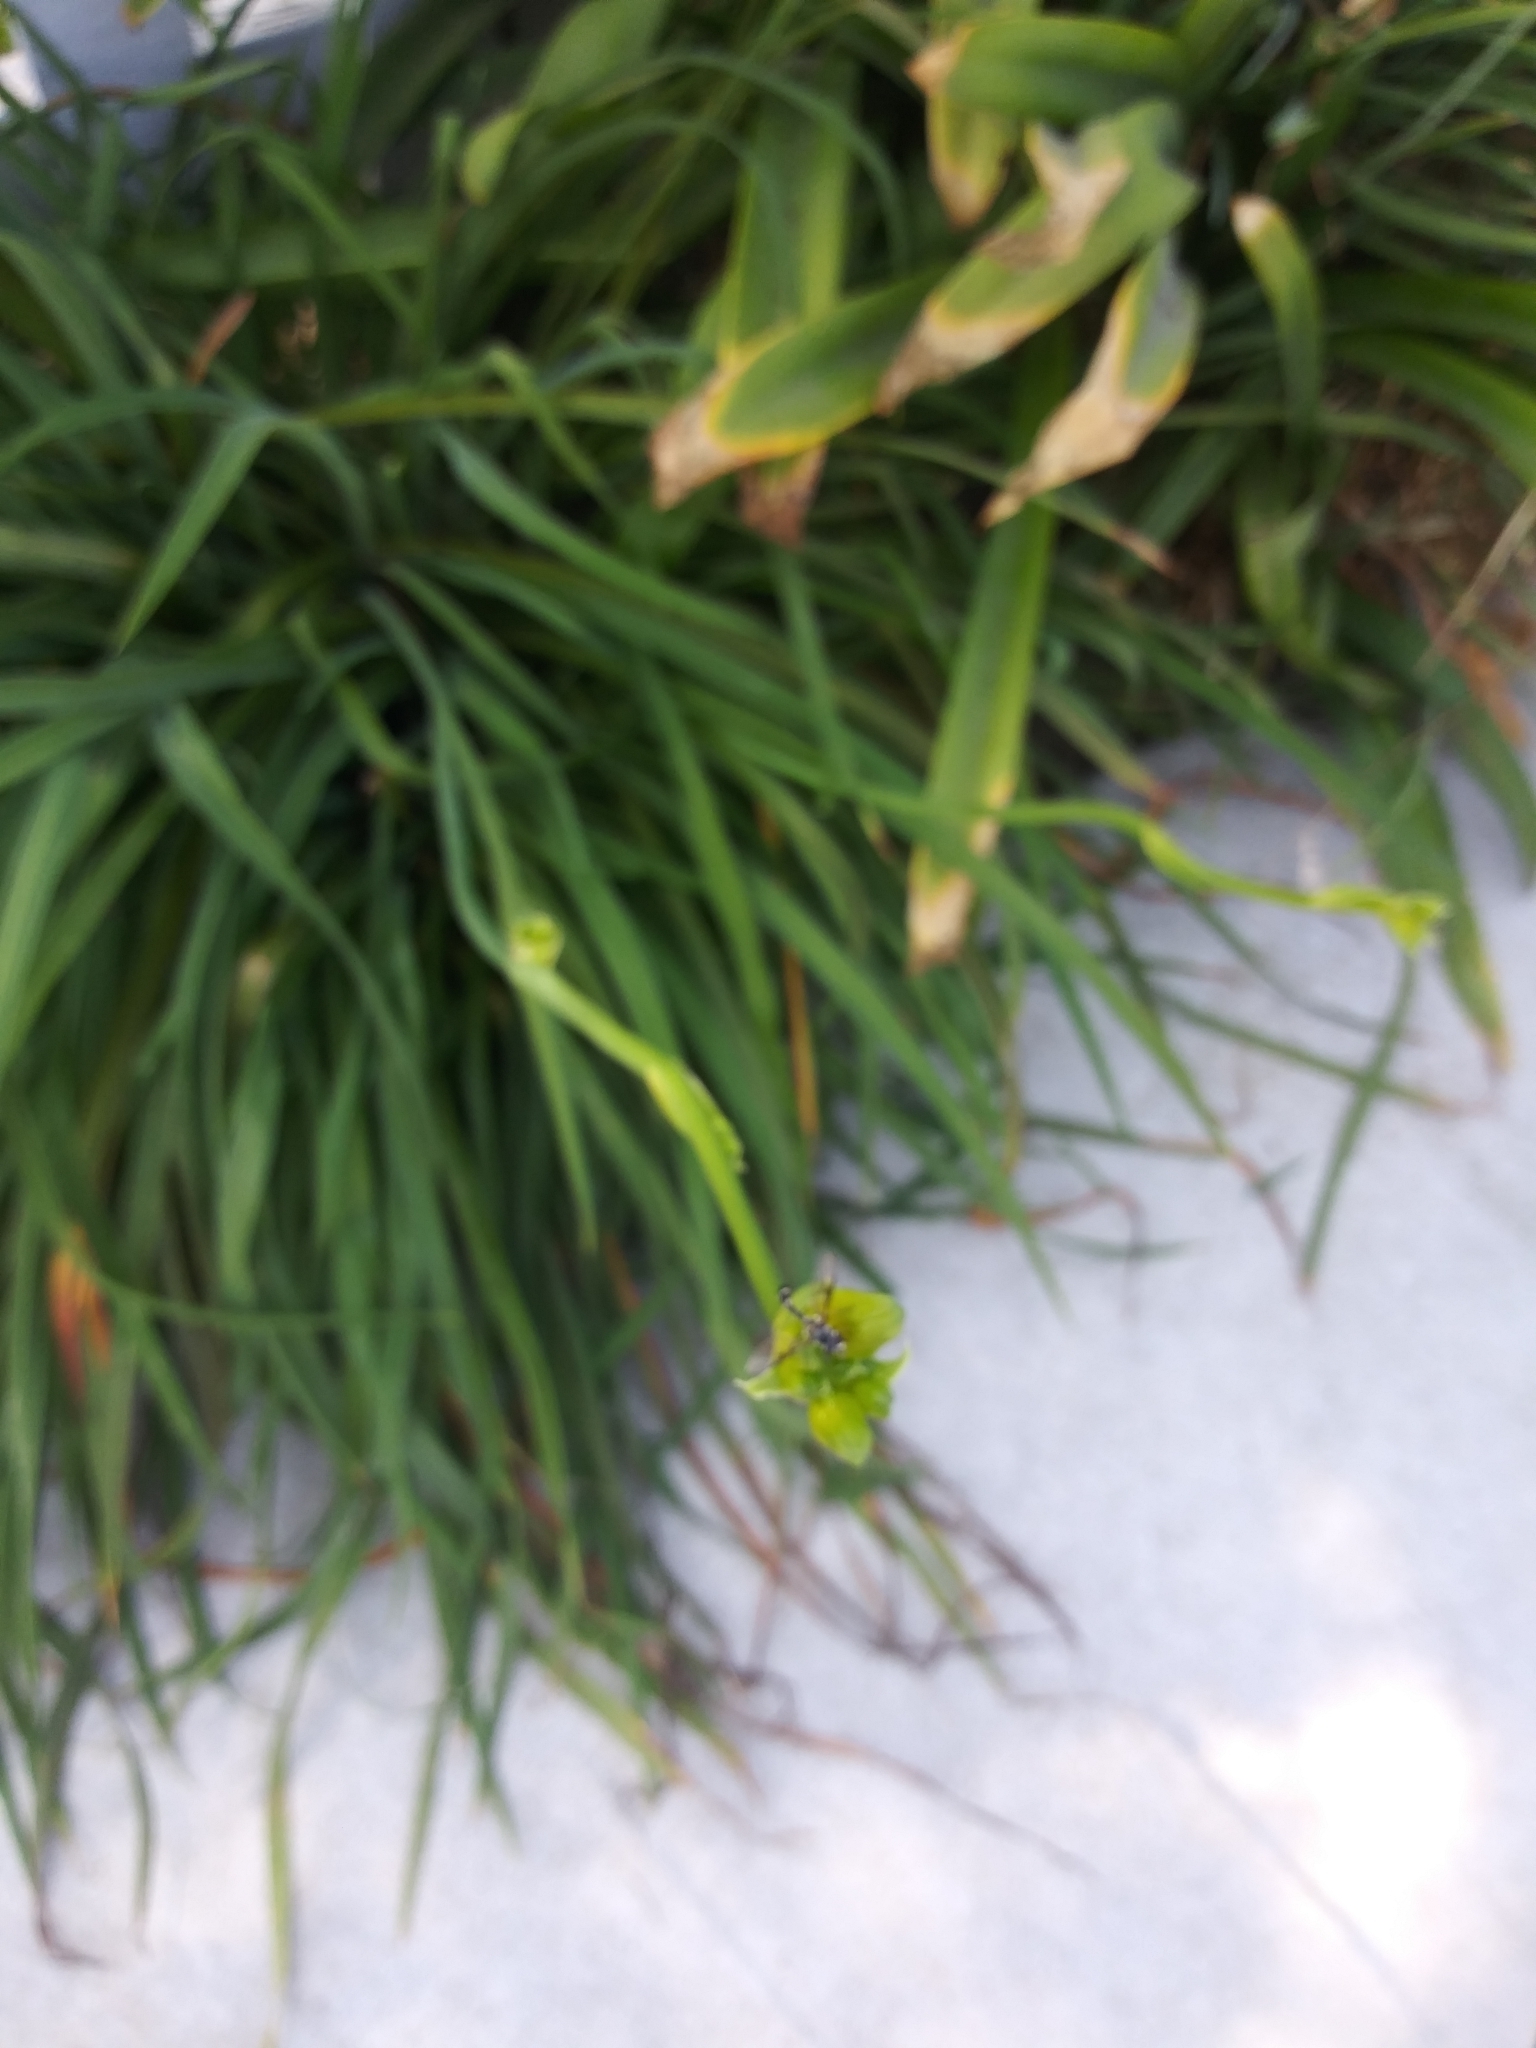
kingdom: Animalia
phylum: Arthropoda
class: Insecta
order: Diptera
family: Syrphidae
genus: Dioprosopa
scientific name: Dioprosopa clavatus
